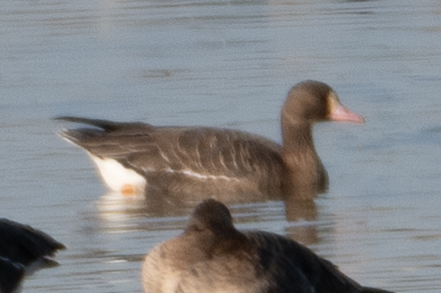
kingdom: Animalia
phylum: Chordata
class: Aves
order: Anseriformes
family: Anatidae
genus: Anser
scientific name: Anser albifrons
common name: Greater white-fronted goose
